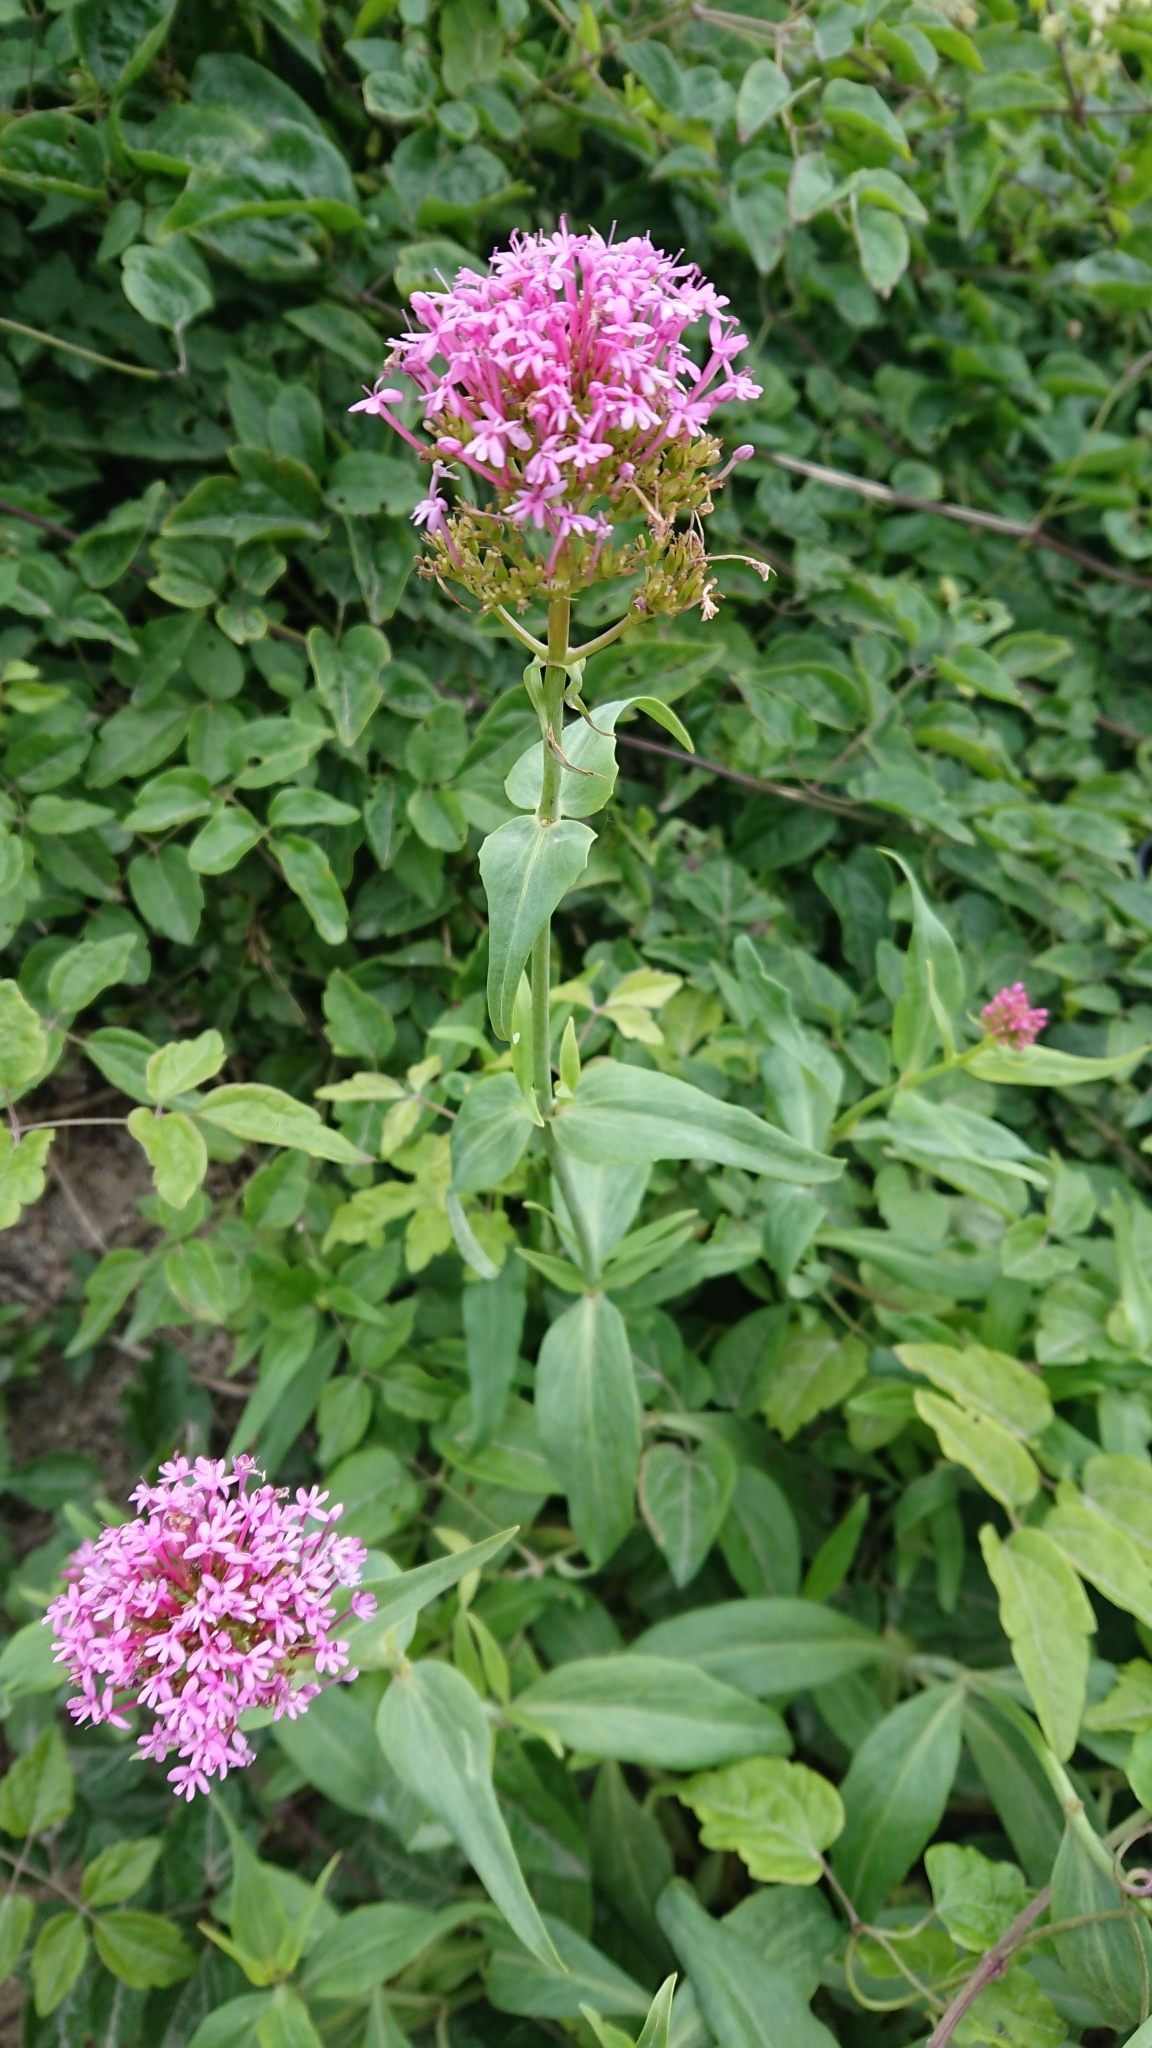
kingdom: Plantae
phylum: Tracheophyta
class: Magnoliopsida
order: Dipsacales
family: Caprifoliaceae
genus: Centranthus
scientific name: Centranthus ruber
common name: Red valerian
